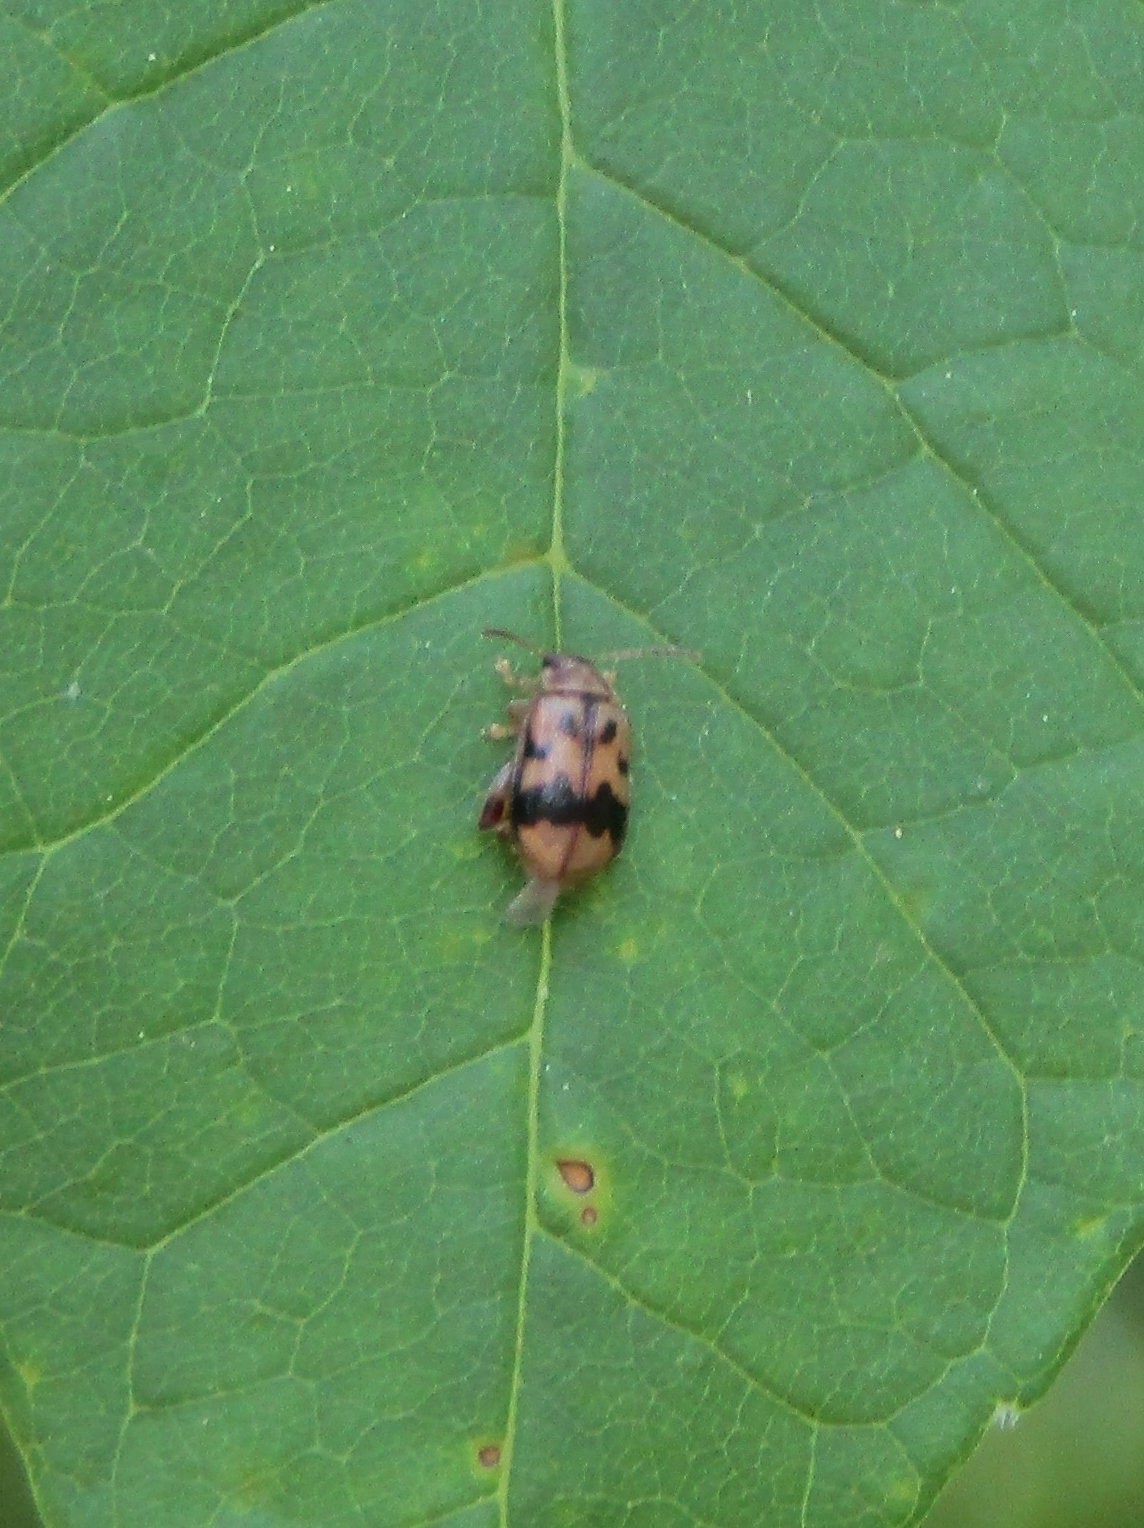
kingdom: Animalia
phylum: Arthropoda
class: Insecta
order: Coleoptera
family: Chrysomelidae
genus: Capraita
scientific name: Capraita sexmaculata
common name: Charlie brown flea beetle
